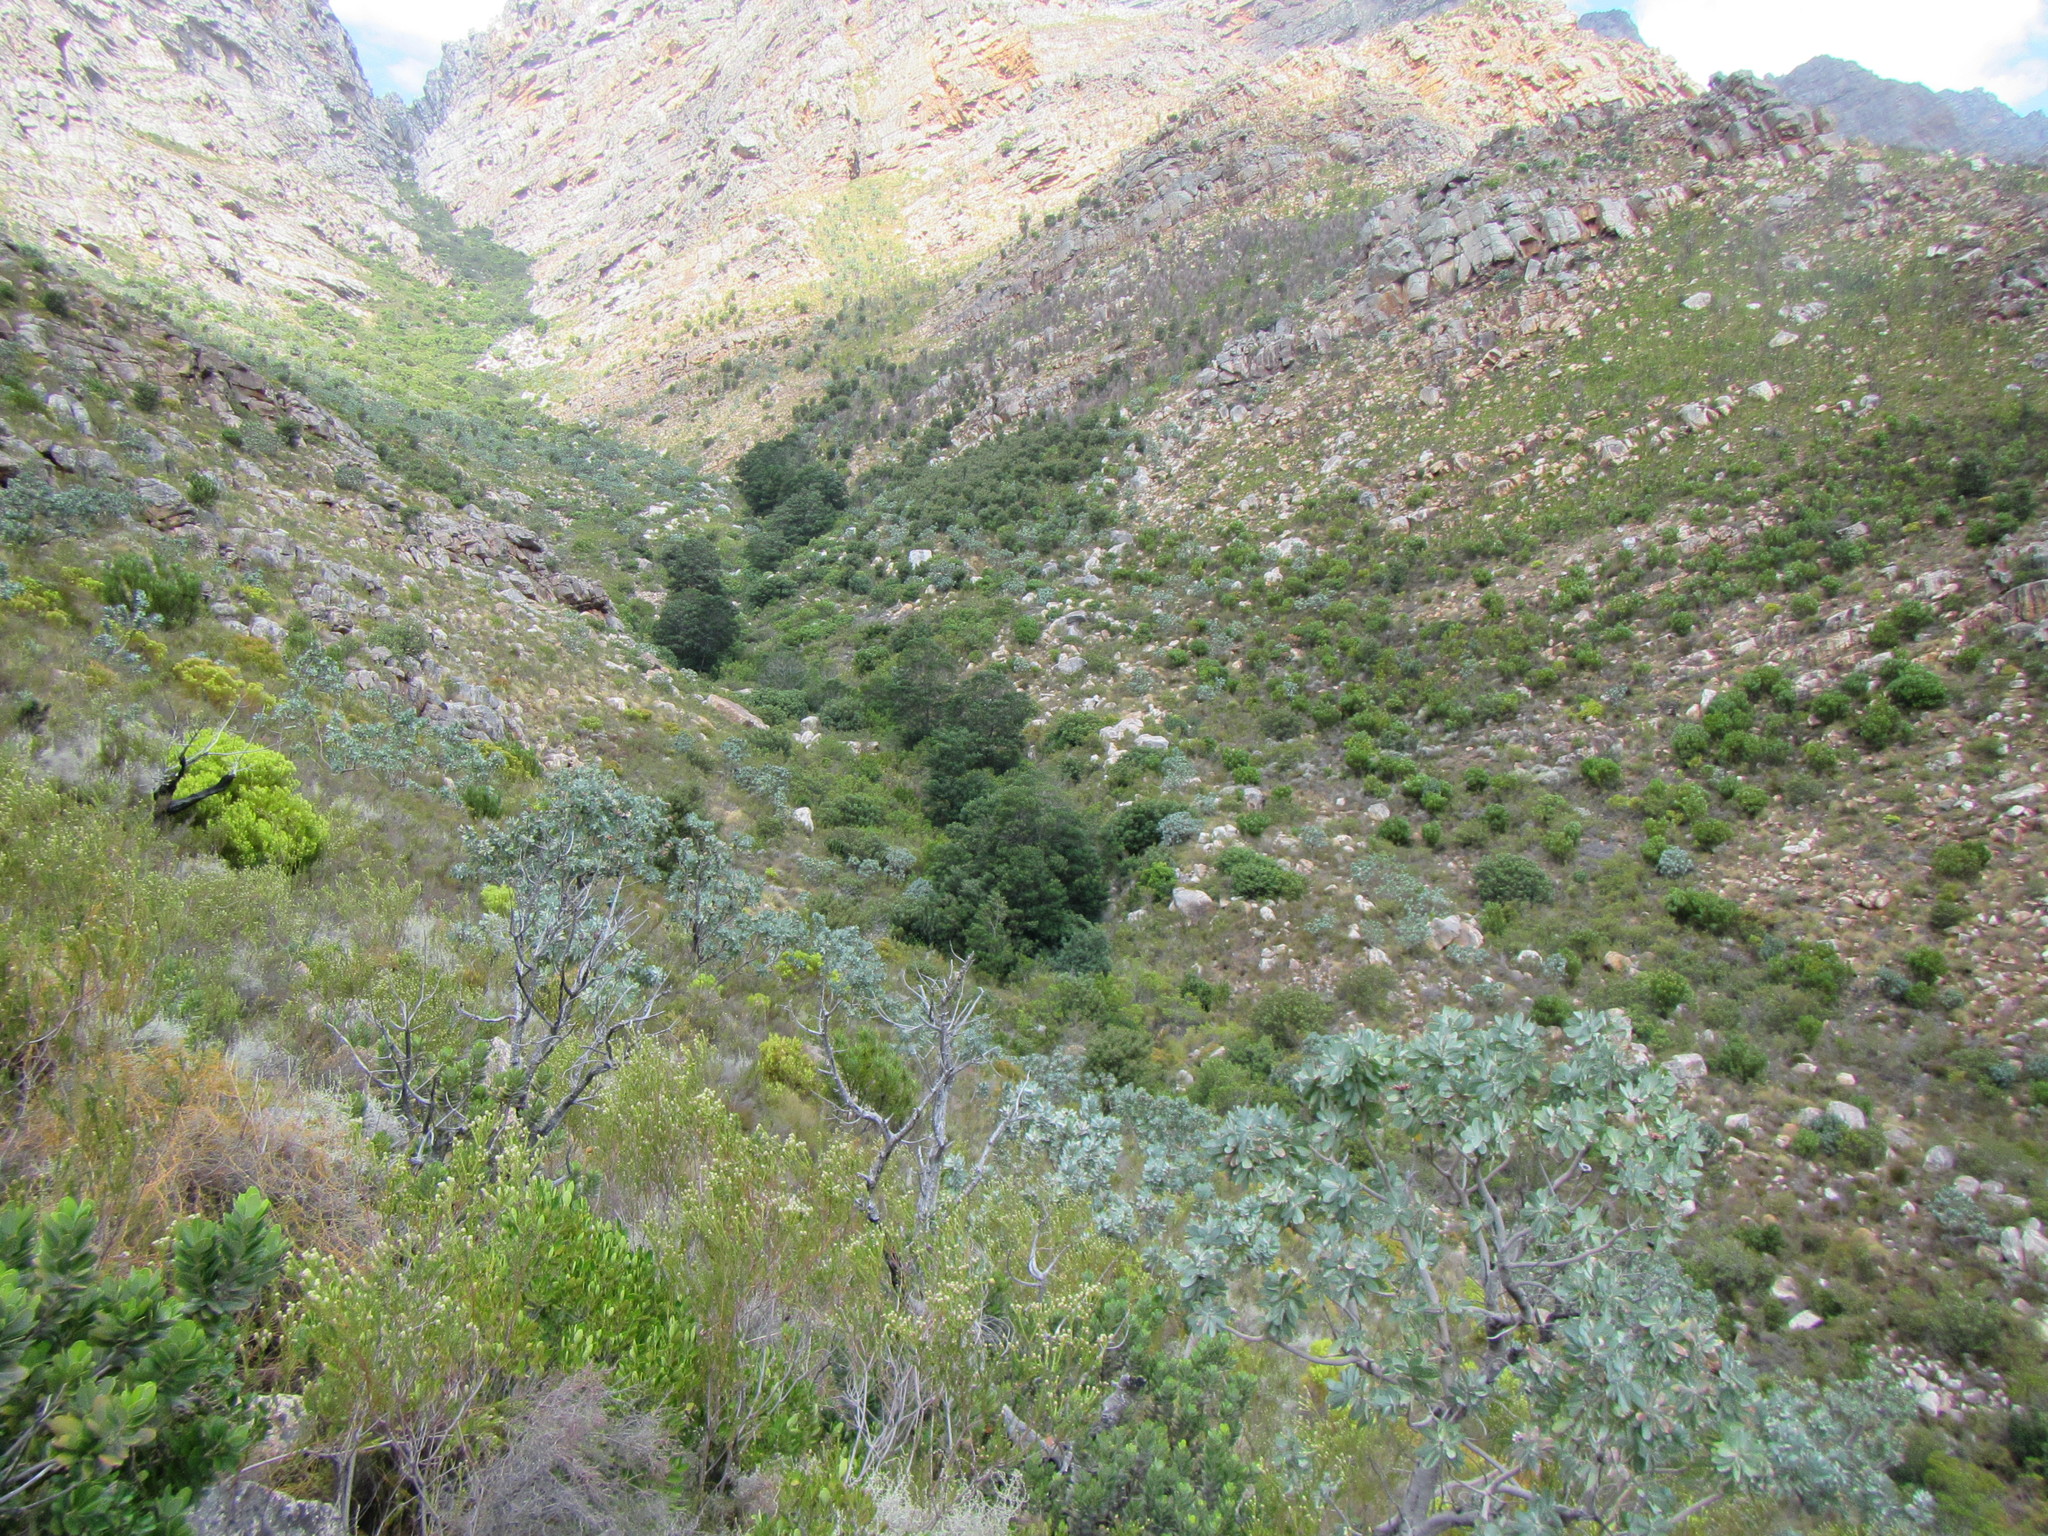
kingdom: Plantae
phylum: Tracheophyta
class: Magnoliopsida
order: Fabales
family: Fabaceae
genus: Acacia
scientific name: Acacia mearnsii
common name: Black wattle
